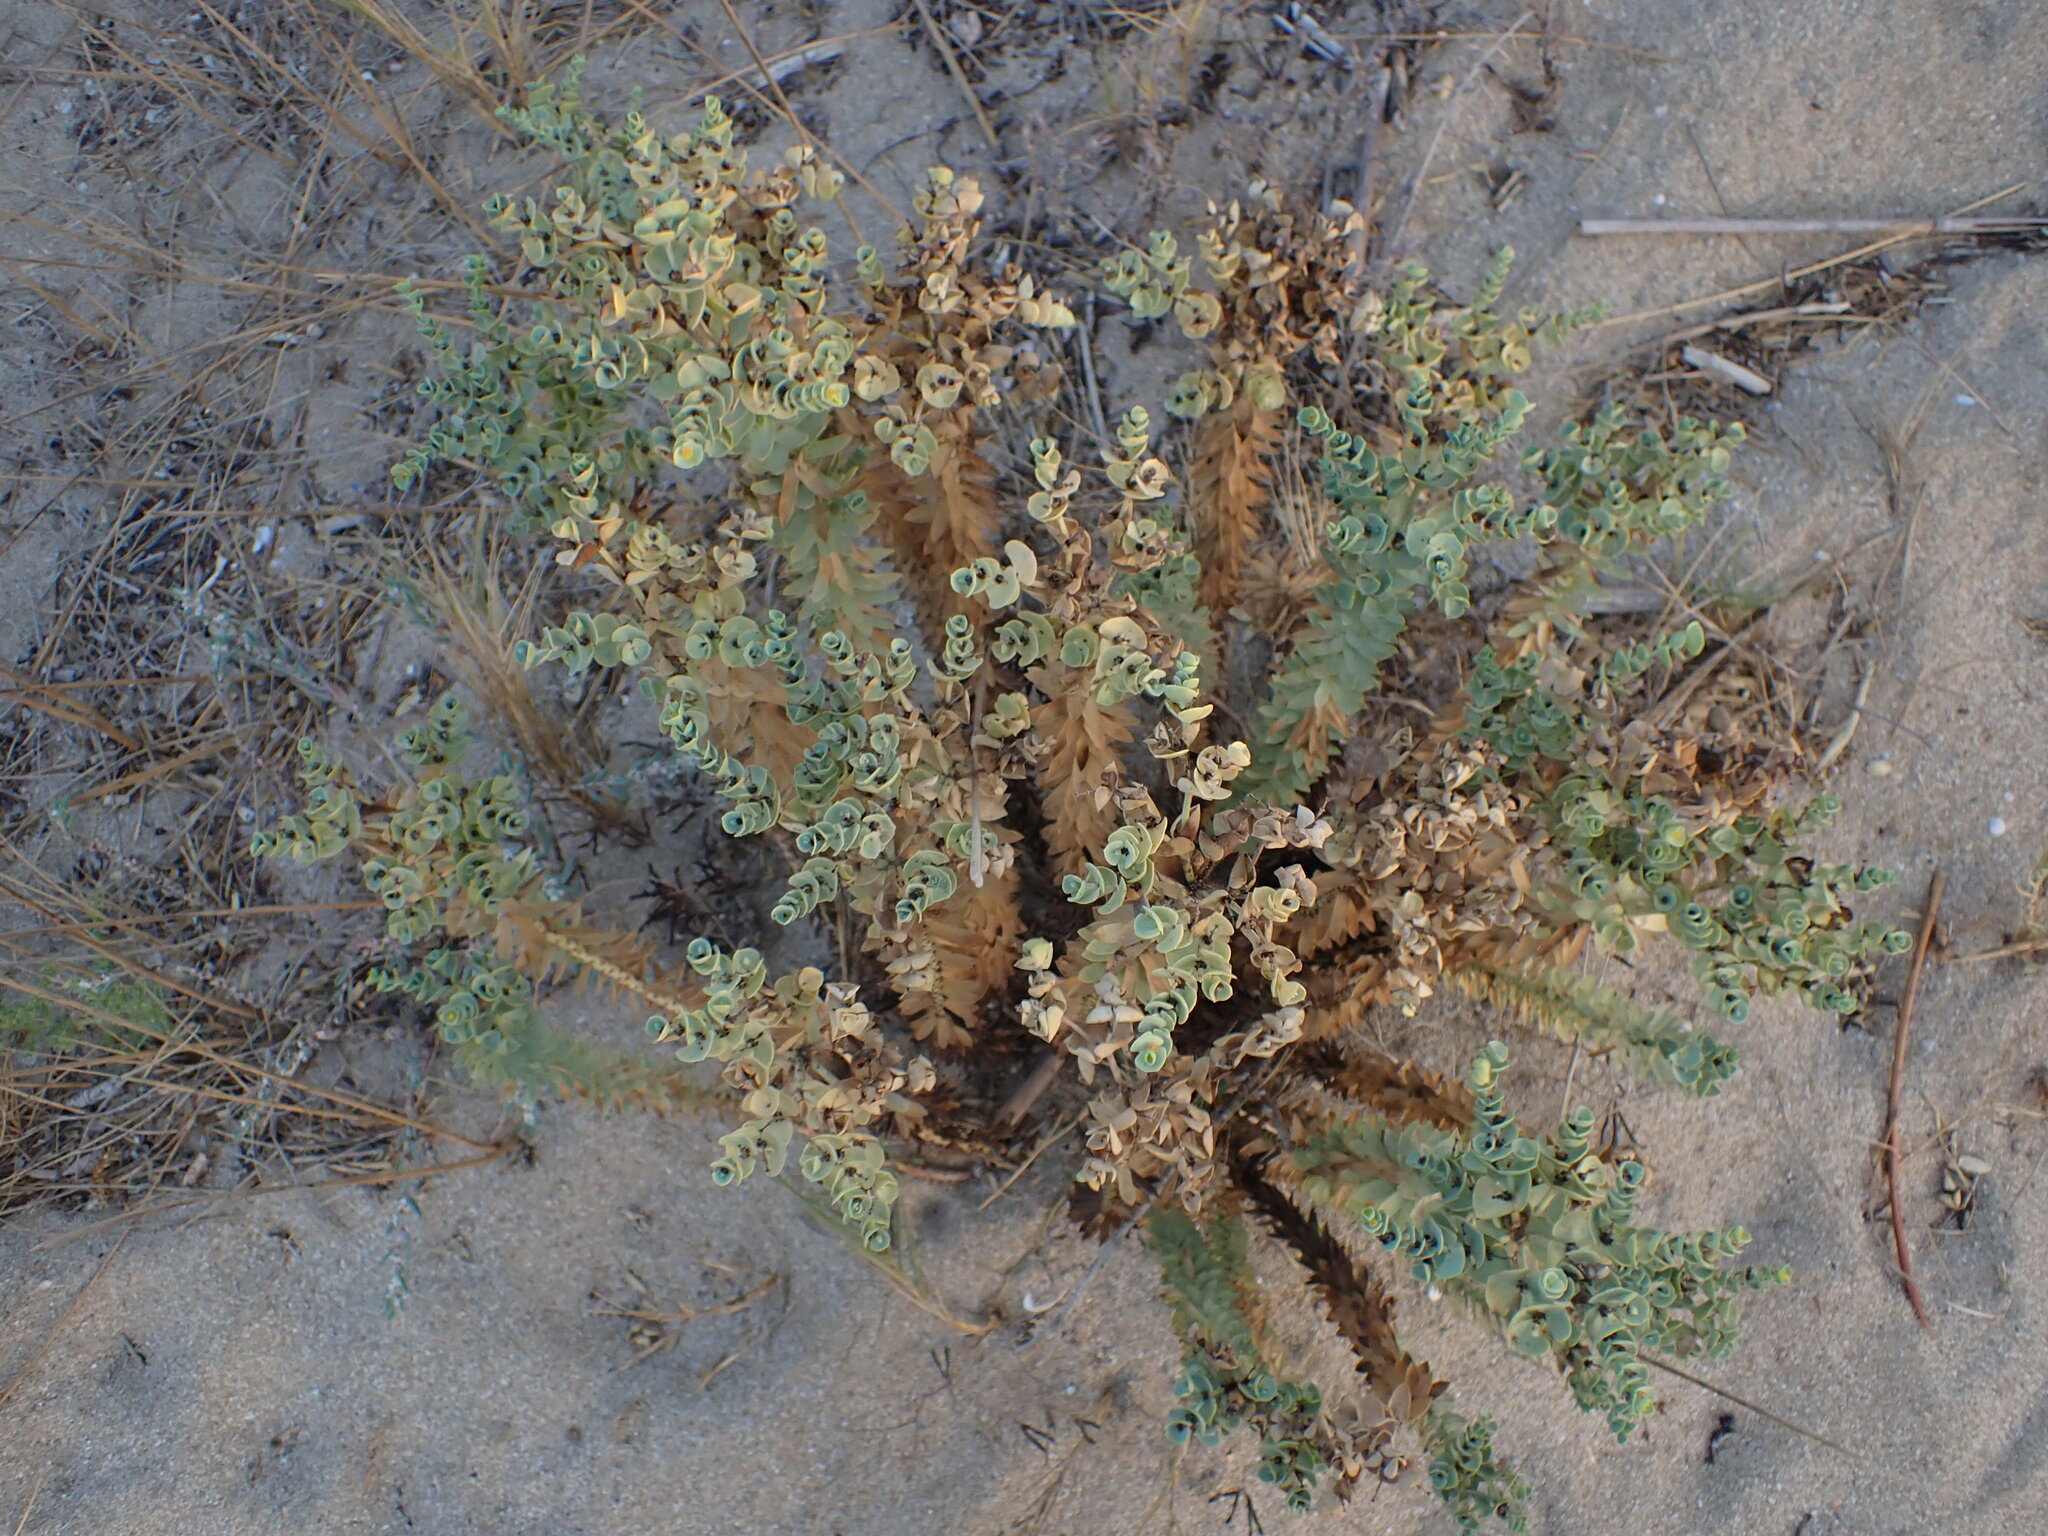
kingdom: Plantae
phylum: Tracheophyta
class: Magnoliopsida
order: Malpighiales
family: Euphorbiaceae
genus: Euphorbia
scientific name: Euphorbia paralias
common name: Sea spurge
